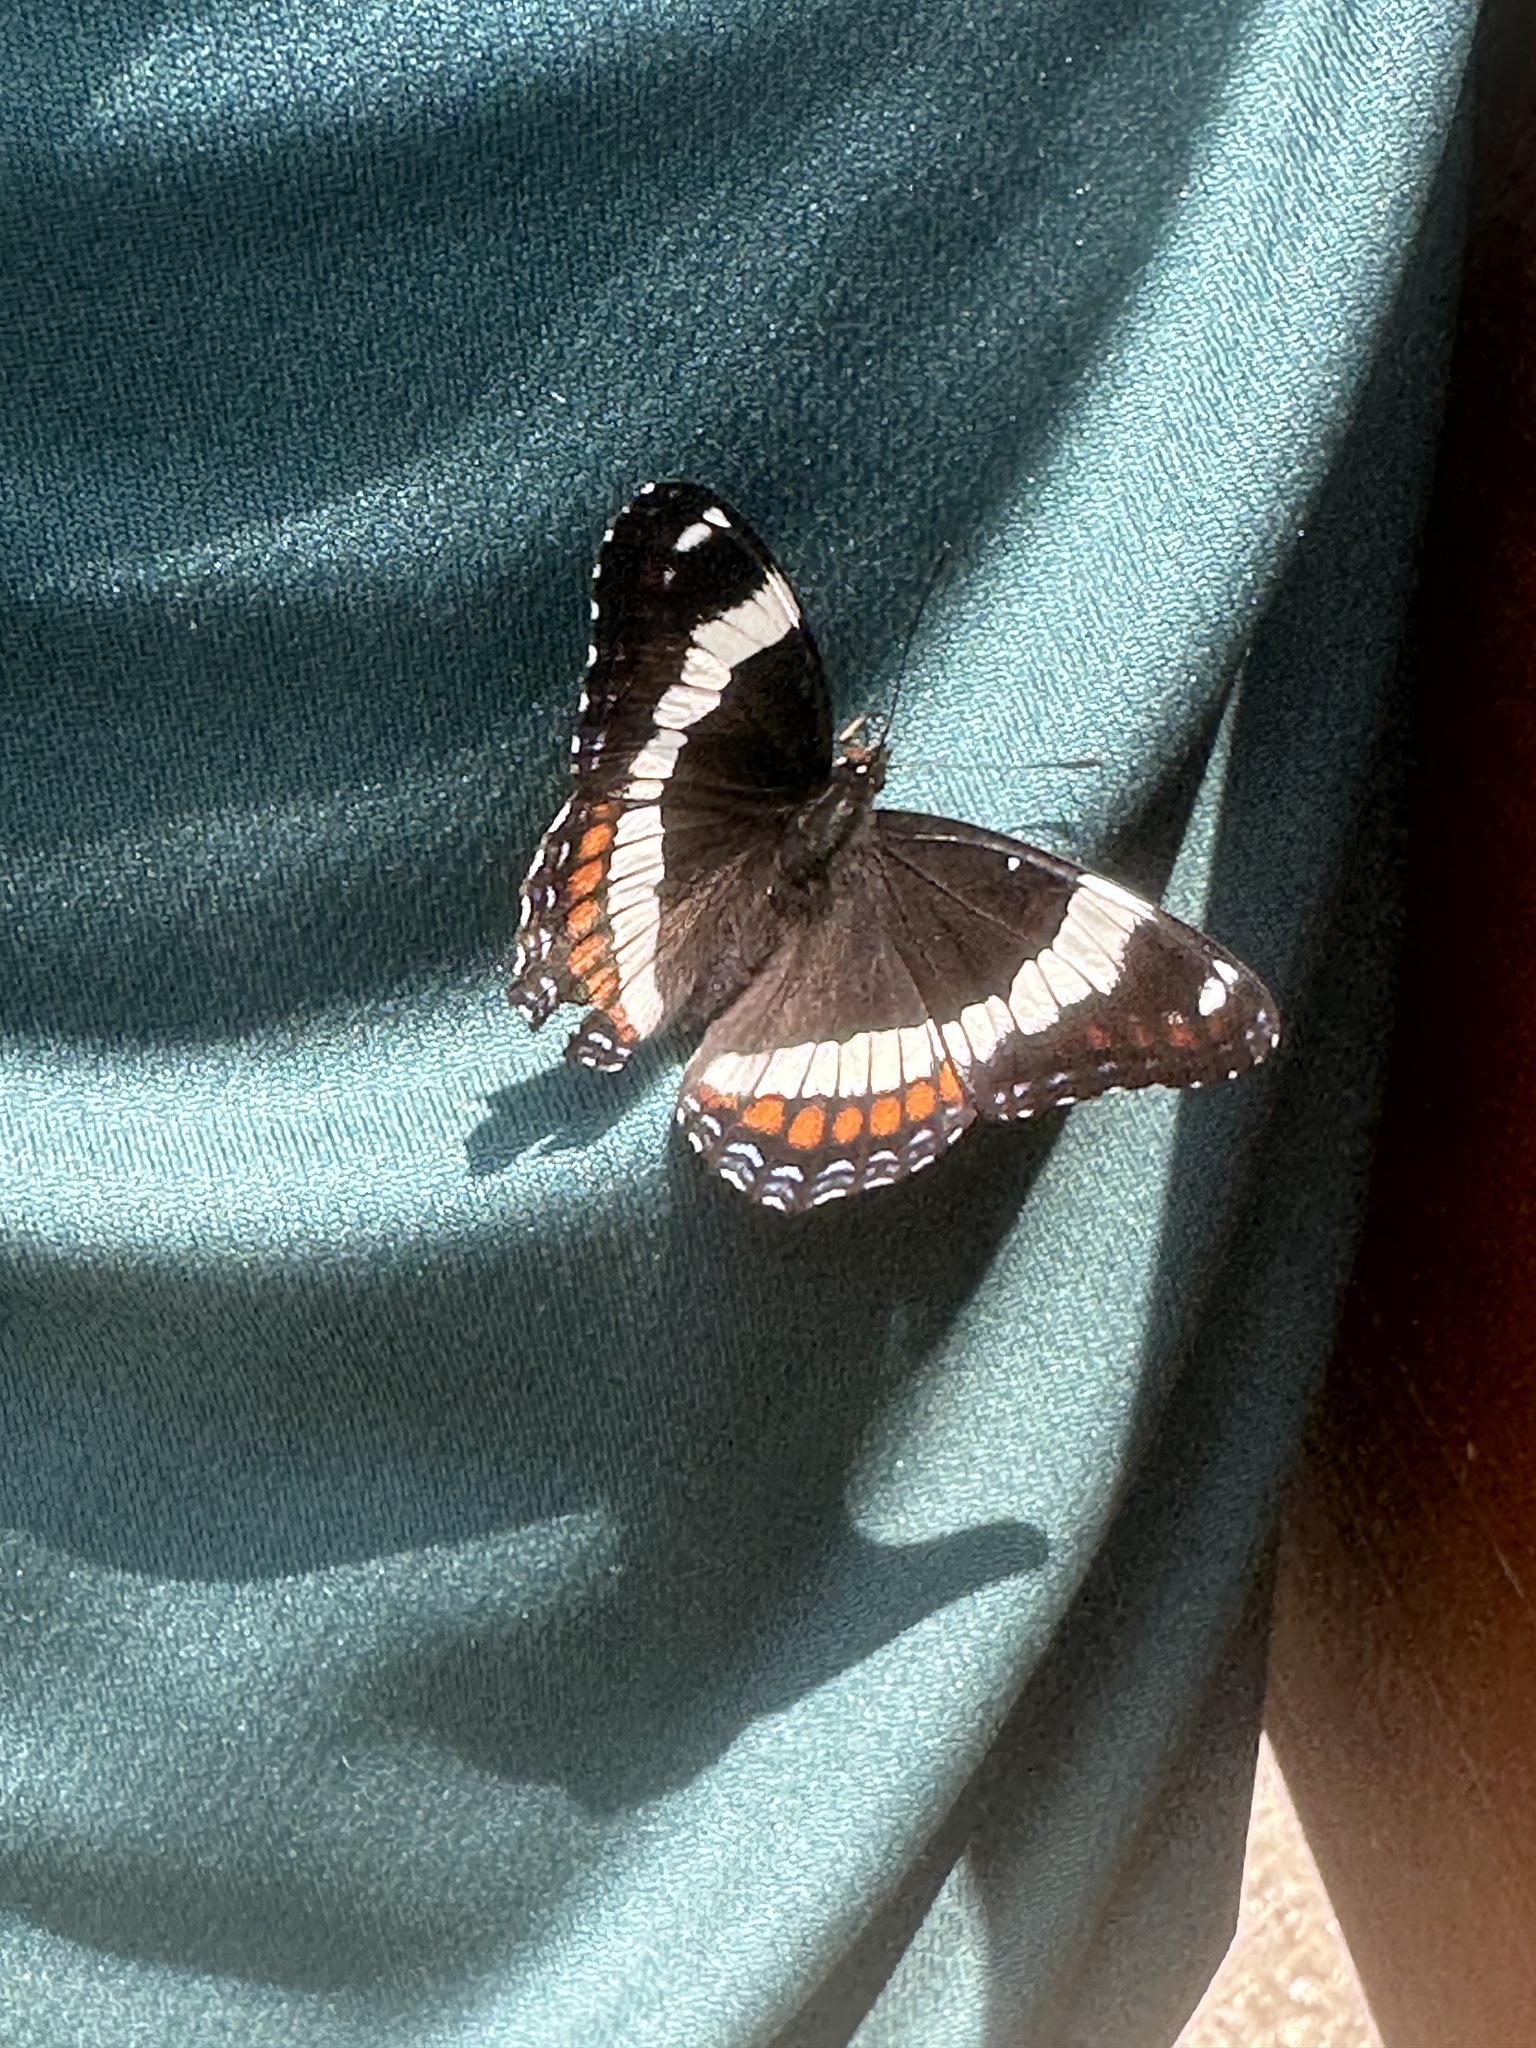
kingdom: Animalia
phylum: Arthropoda
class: Insecta
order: Lepidoptera
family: Nymphalidae
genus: Limenitis
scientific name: Limenitis arthemis
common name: Red-spotted admiral
